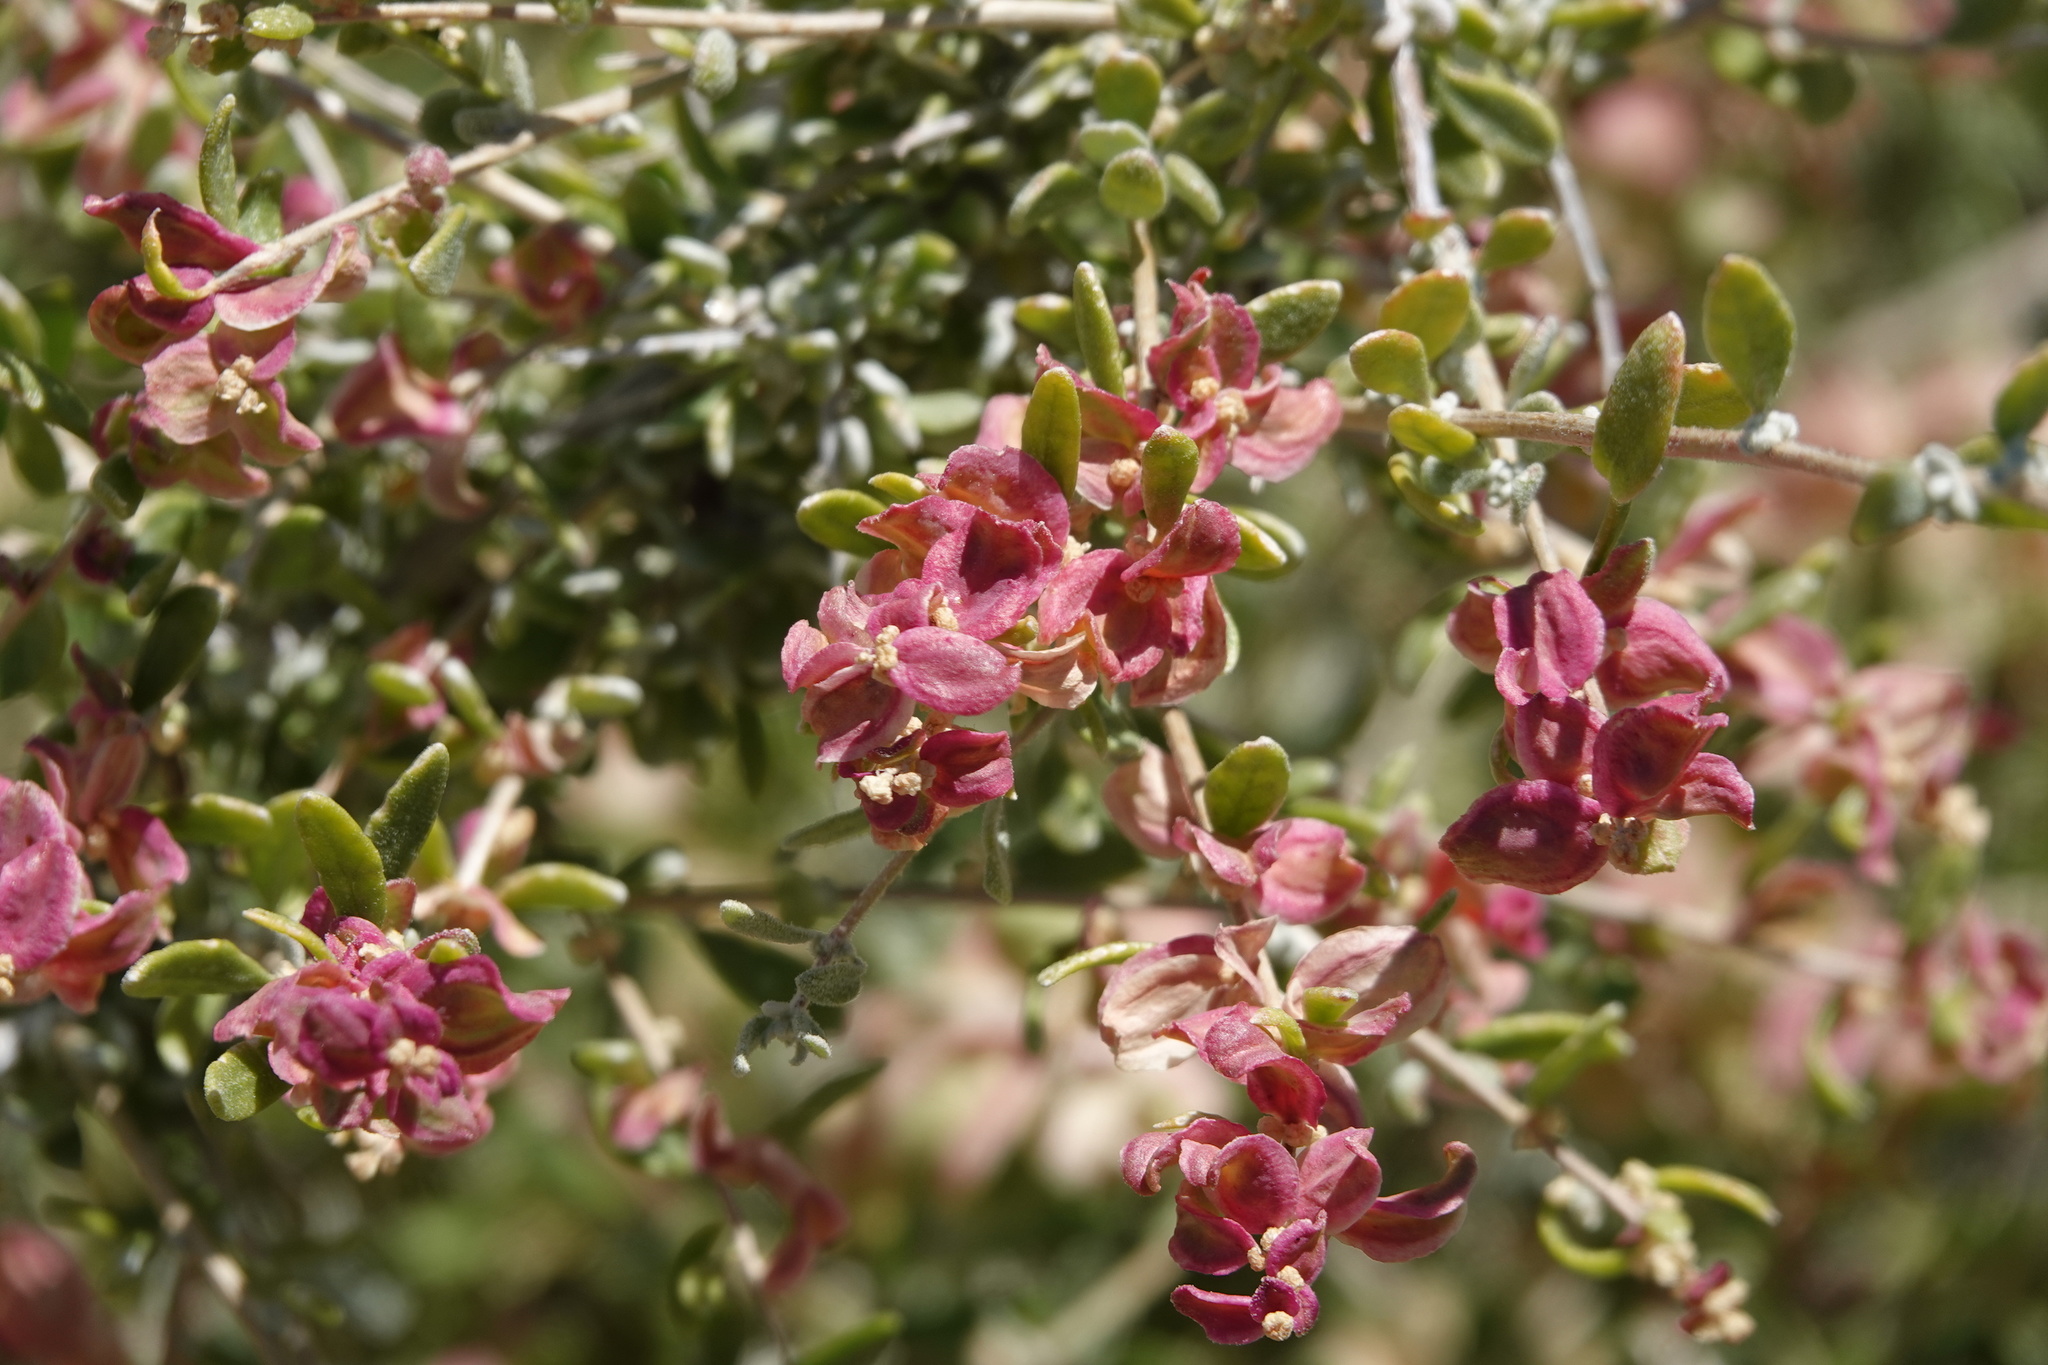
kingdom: Plantae
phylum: Tracheophyta
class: Magnoliopsida
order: Caryophyllales
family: Amaranthaceae
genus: Grayia
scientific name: Grayia spinosa
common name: Spiny hopsage
